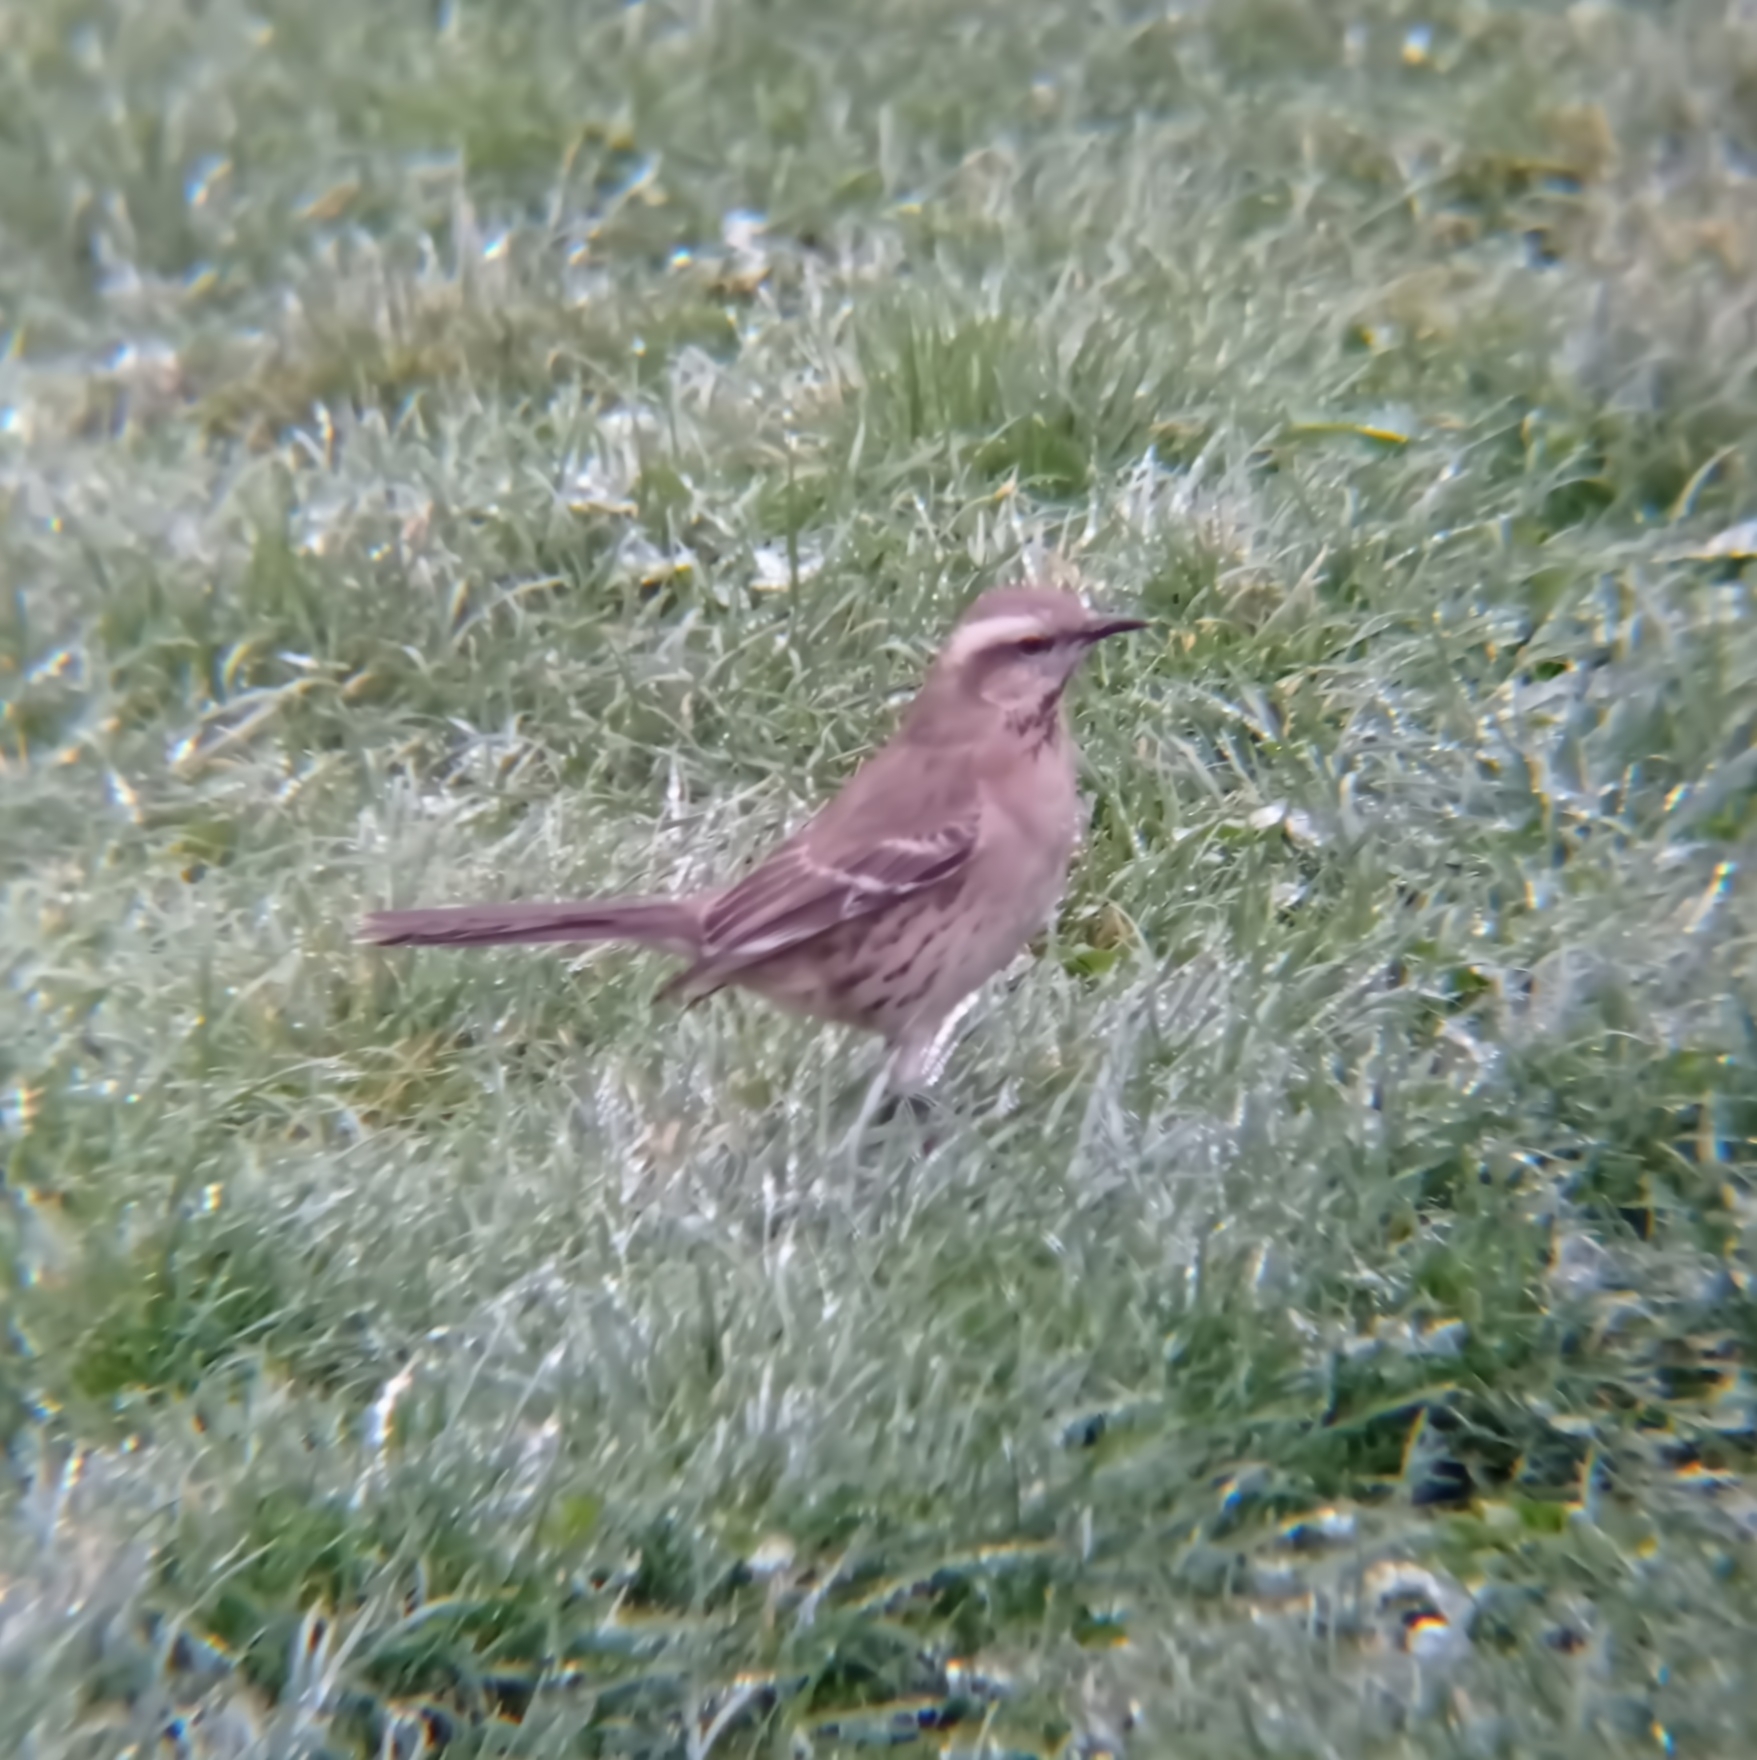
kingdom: Animalia
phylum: Chordata
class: Aves
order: Passeriformes
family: Mimidae
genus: Mimus
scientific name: Mimus thenca
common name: Chilean mockingbird
